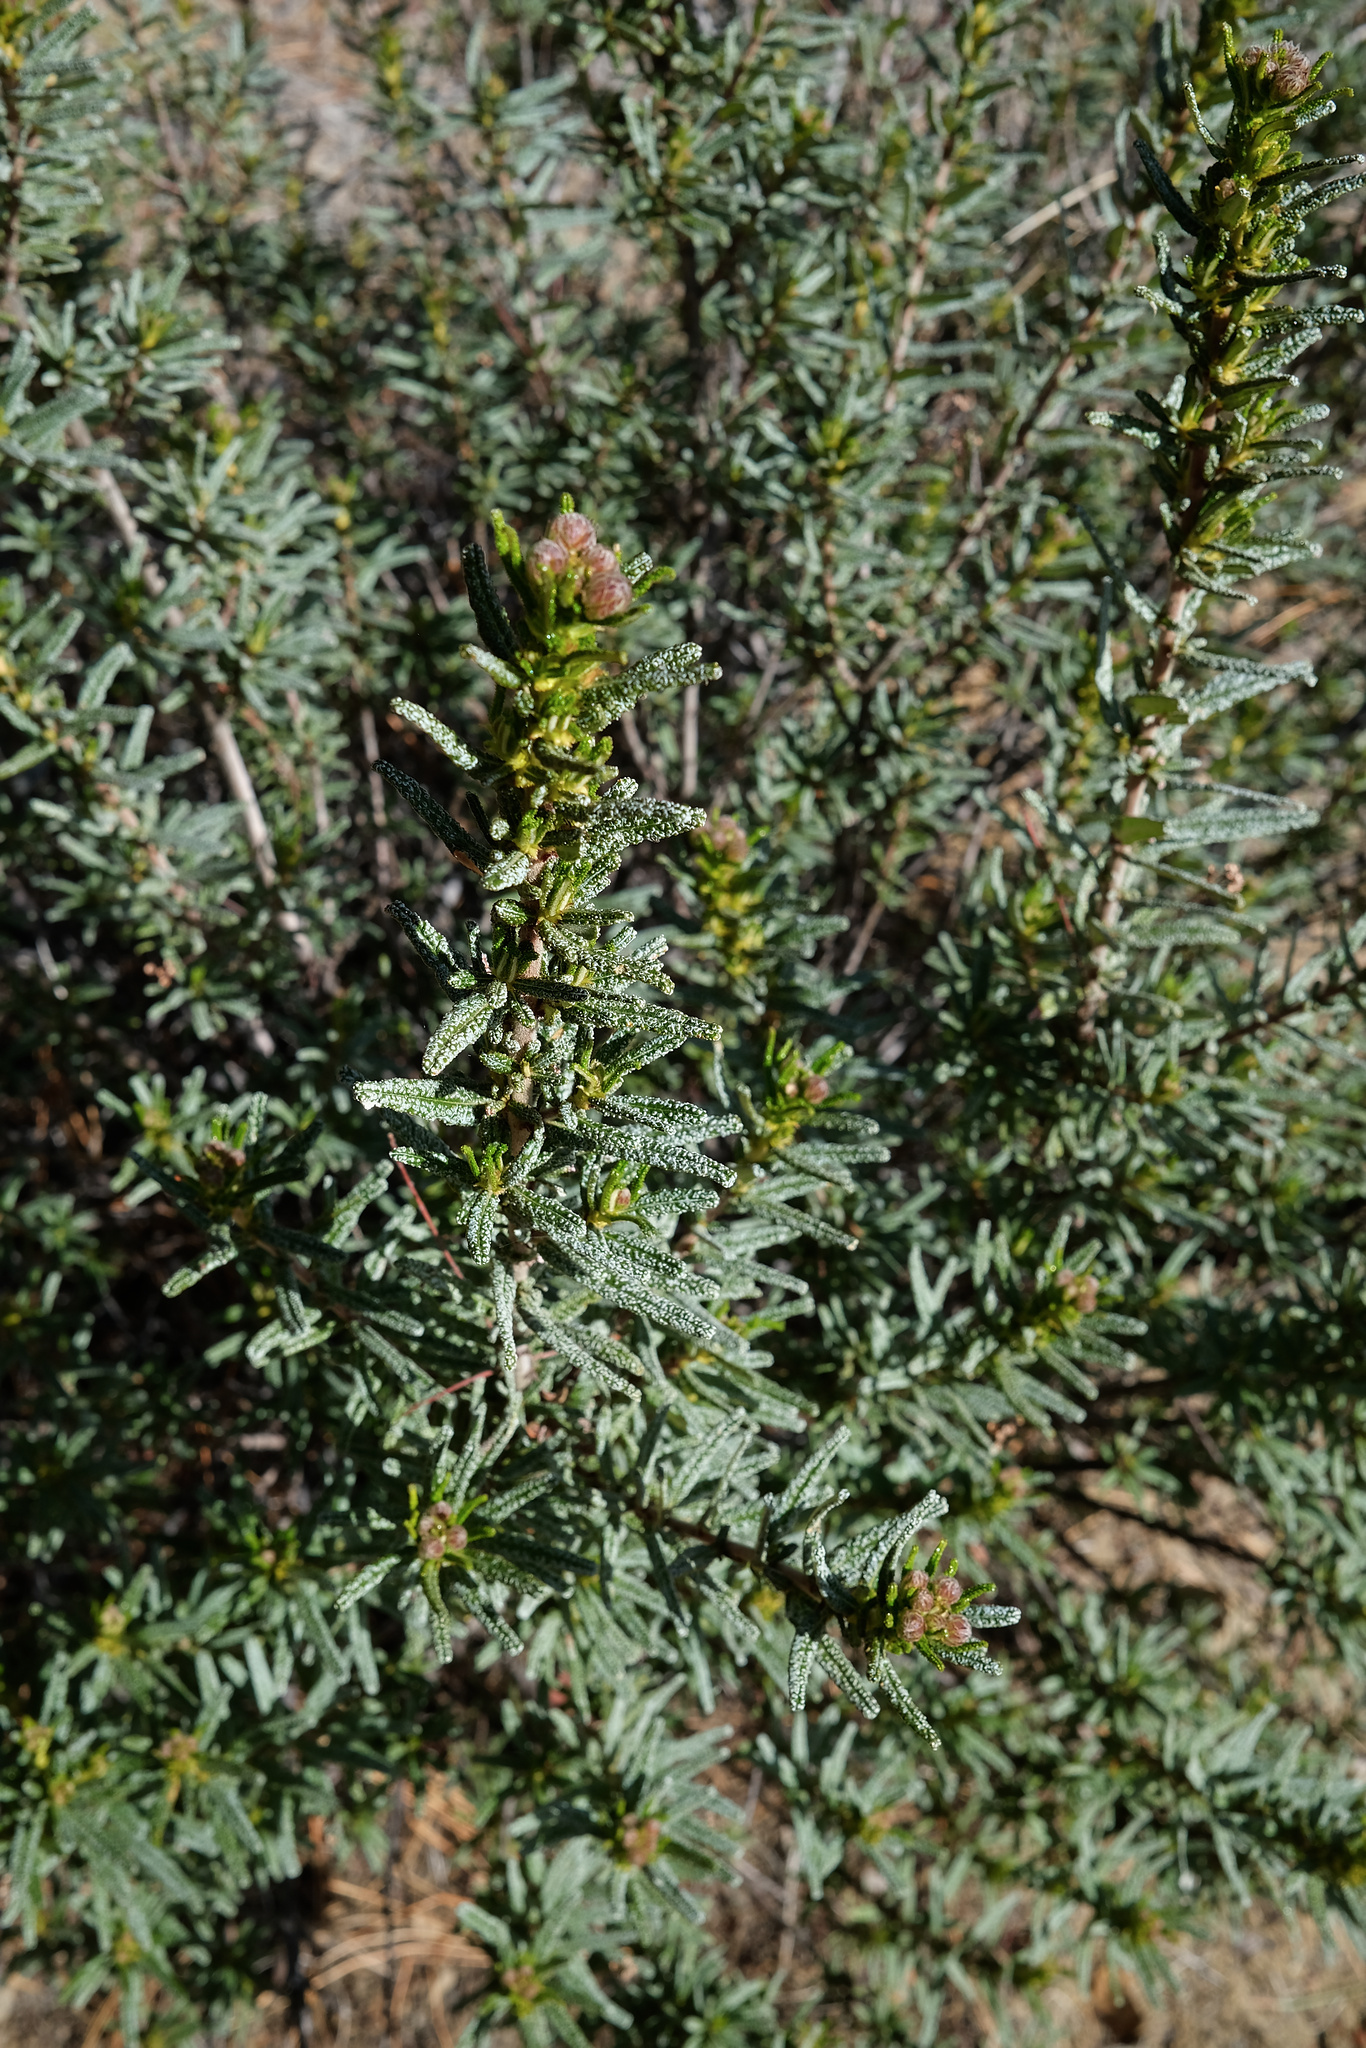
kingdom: Plantae
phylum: Tracheophyta
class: Magnoliopsida
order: Rosales
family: Rhamnaceae
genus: Ceanothus
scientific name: Ceanothus papillosus
